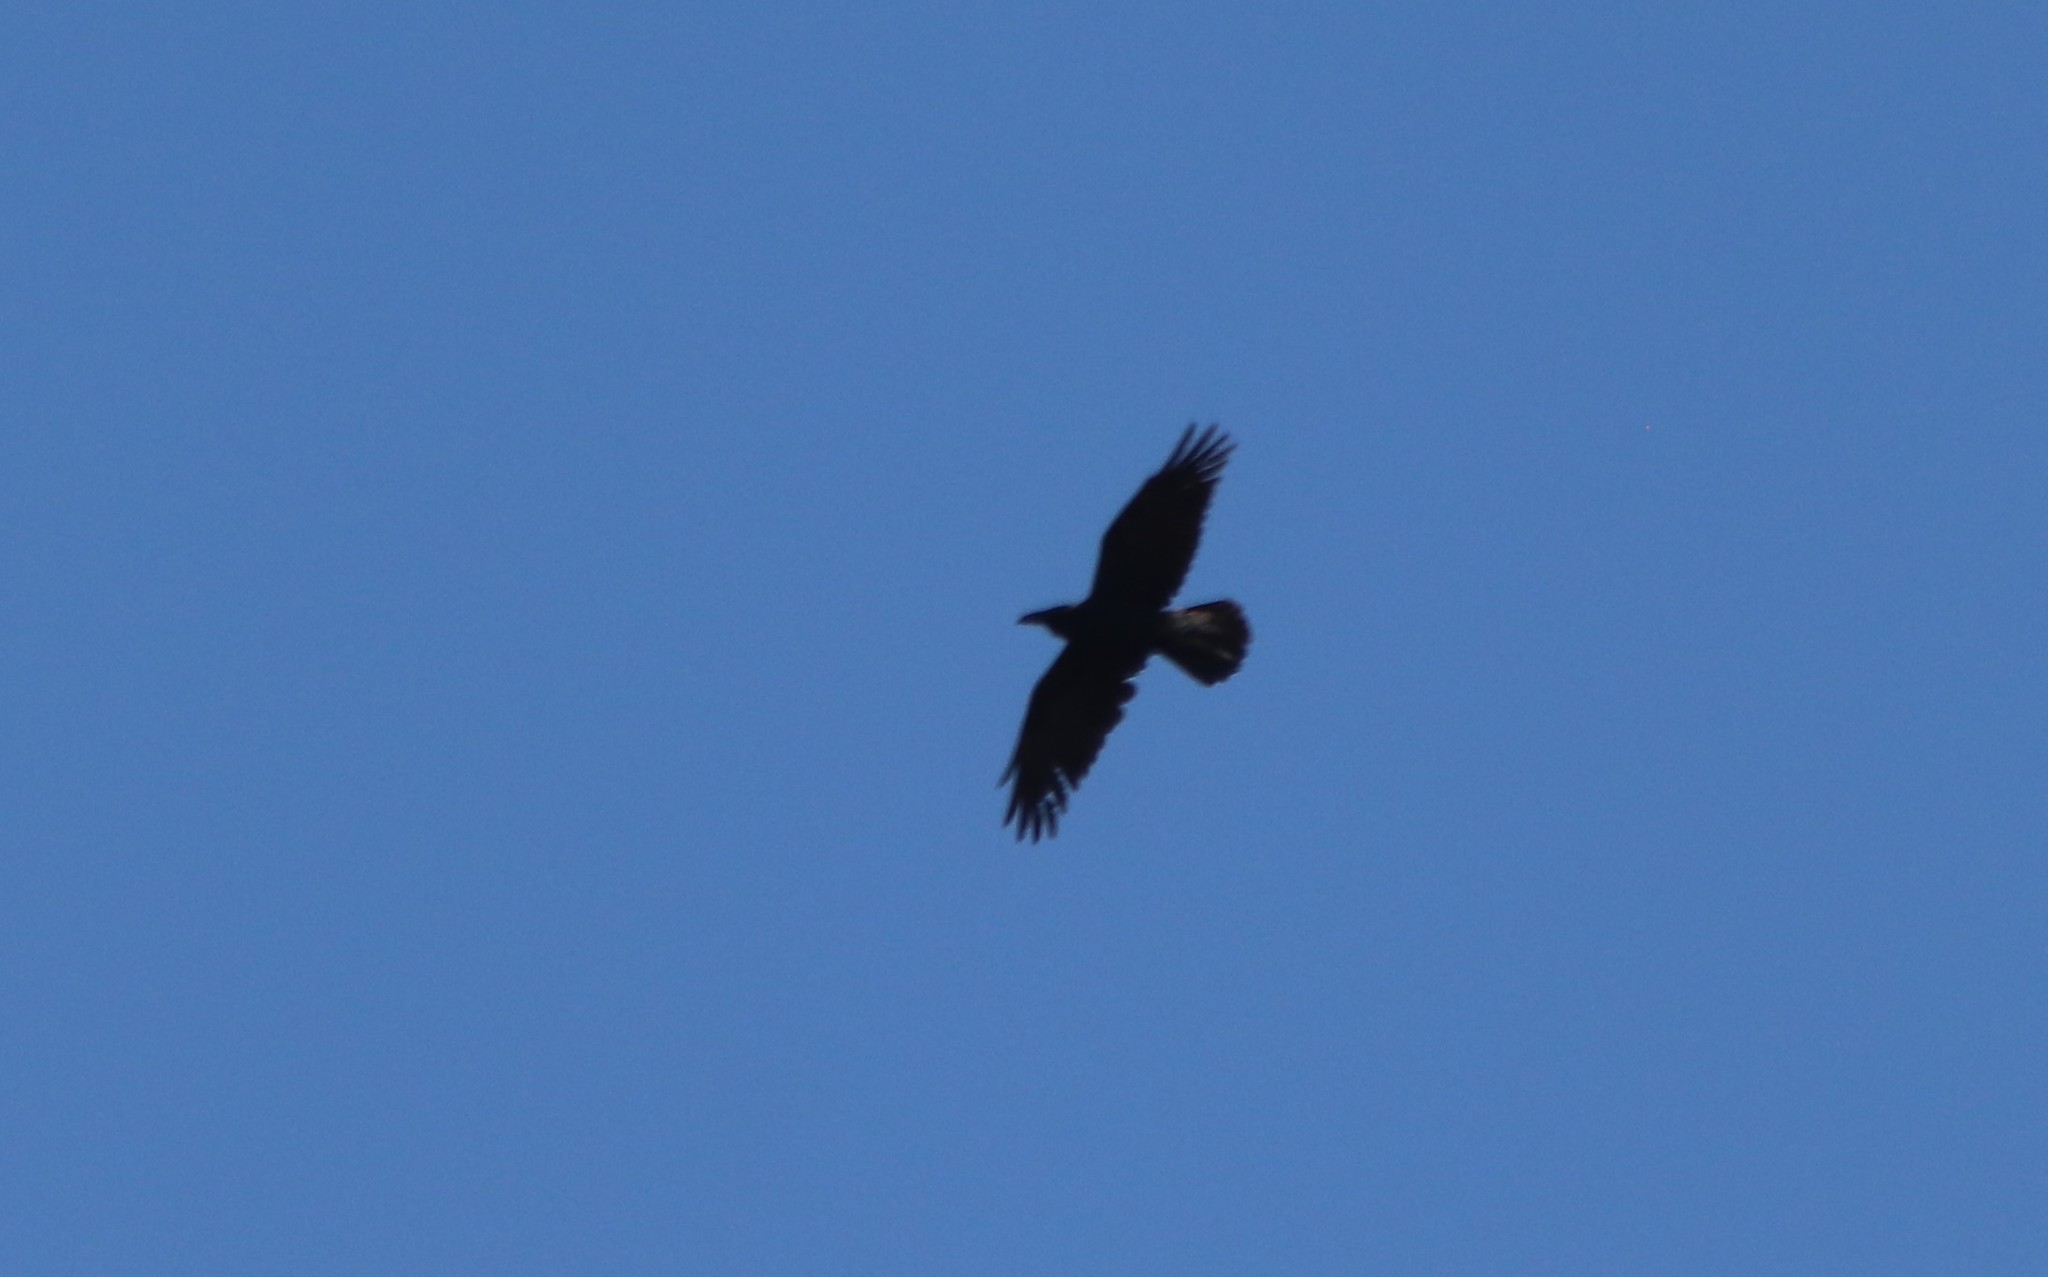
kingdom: Animalia
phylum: Chordata
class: Aves
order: Passeriformes
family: Corvidae
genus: Corvus
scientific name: Corvus corax
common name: Common raven
